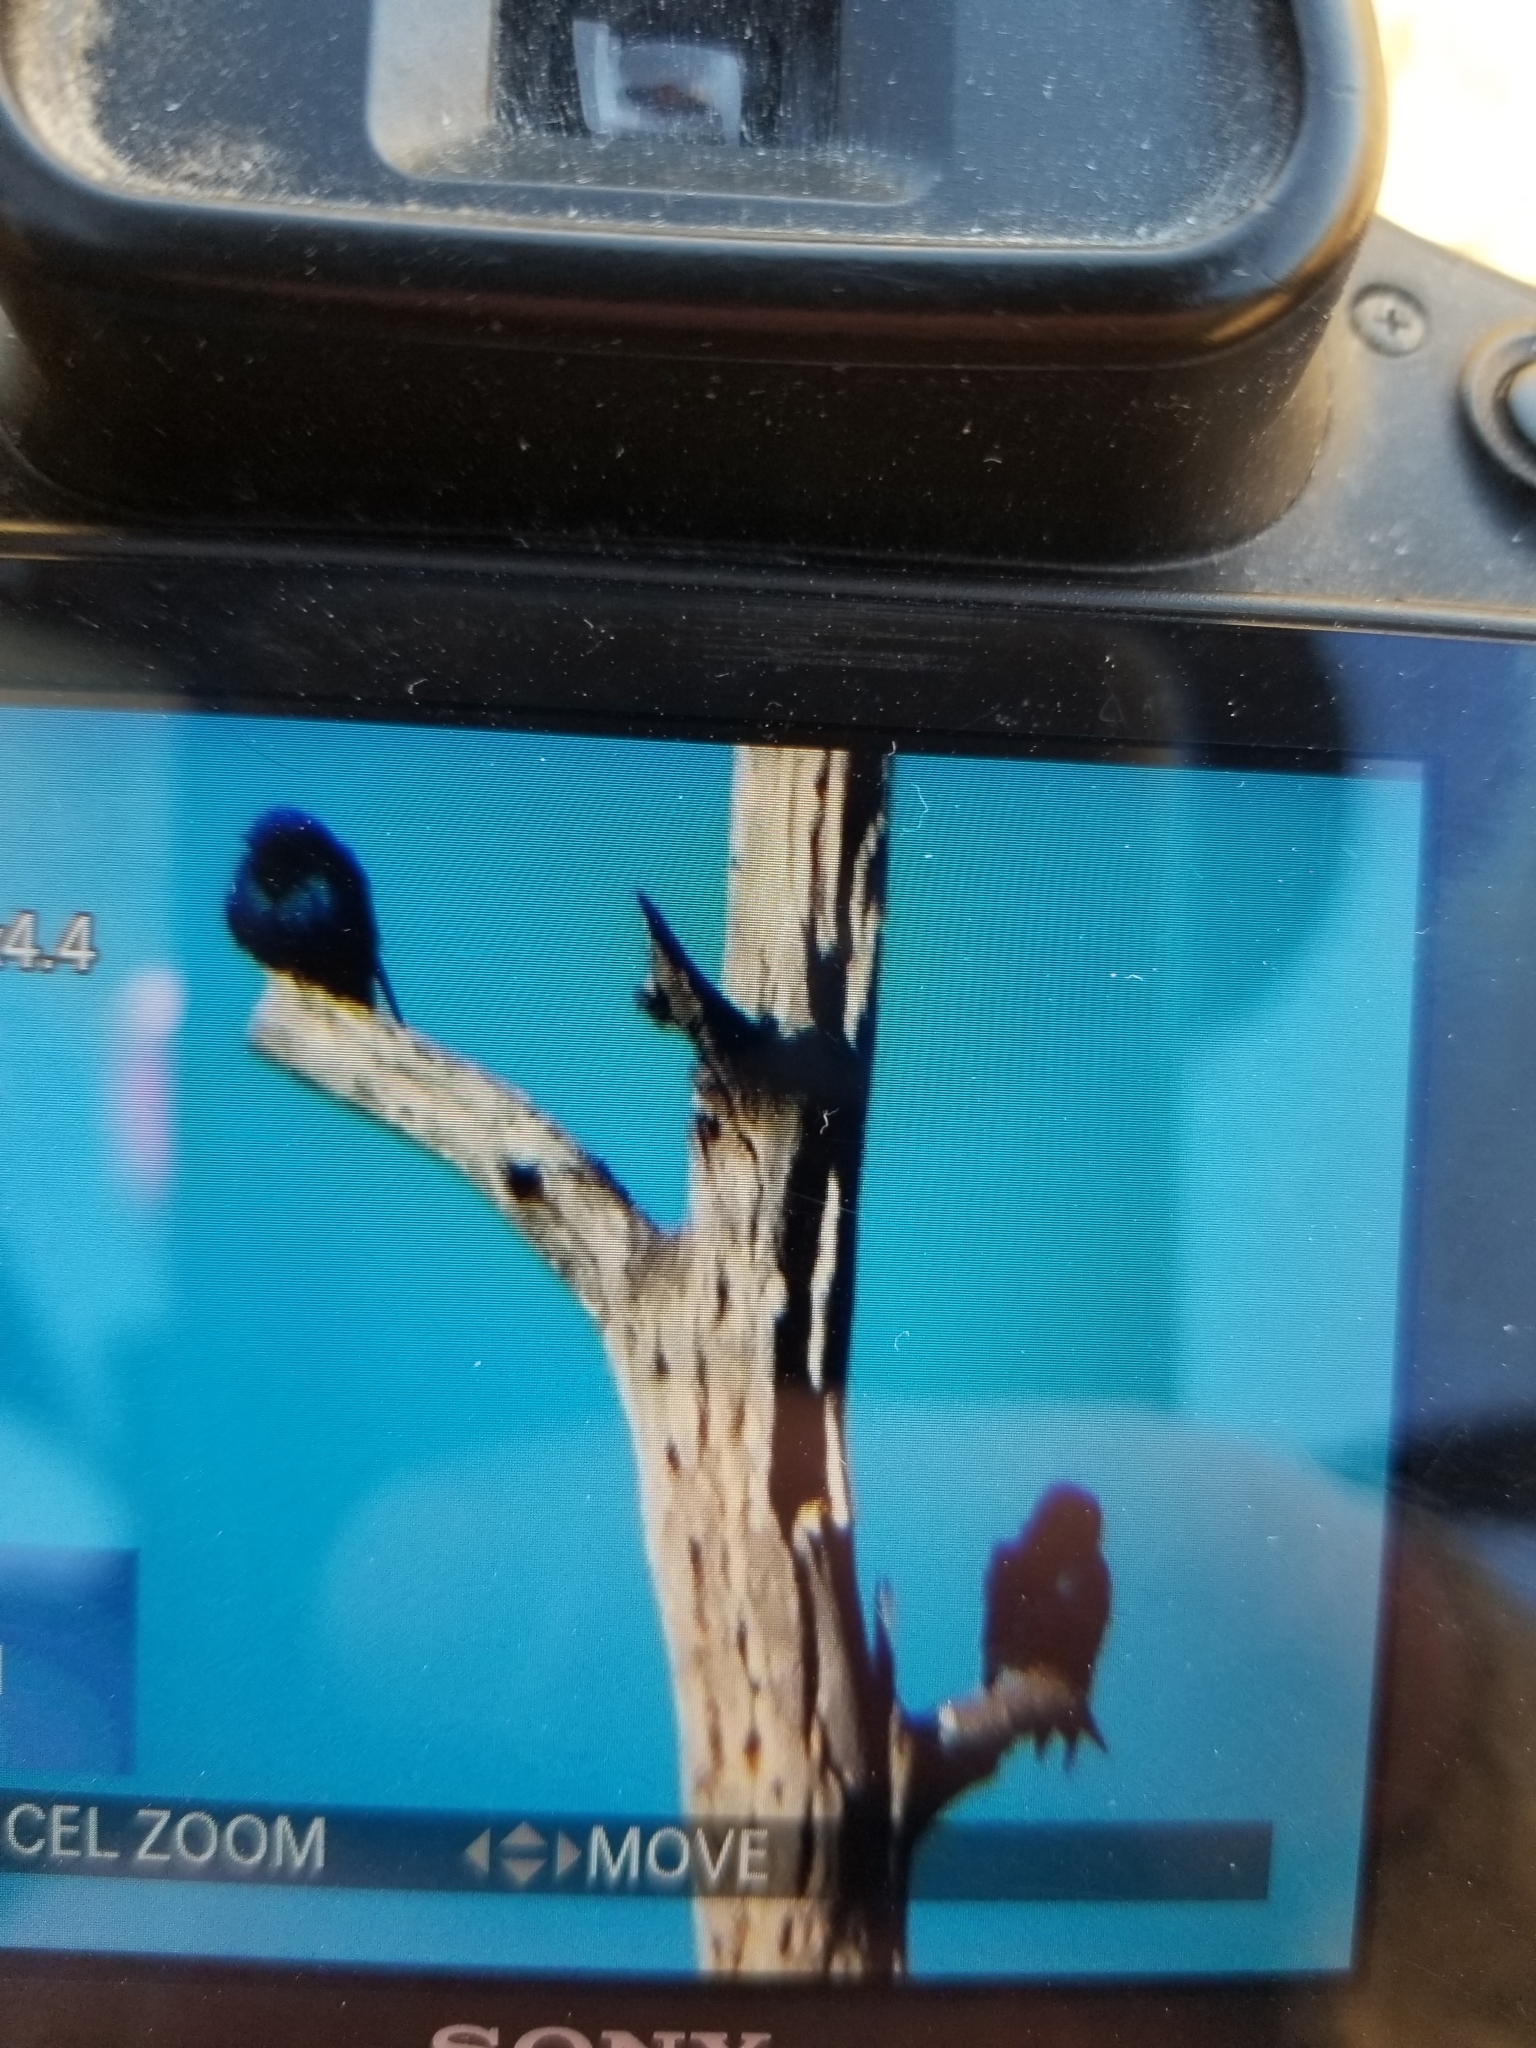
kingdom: Animalia
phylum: Chordata
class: Aves
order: Passeriformes
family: Hirundinidae
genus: Progne
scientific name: Progne subis
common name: Purple martin
